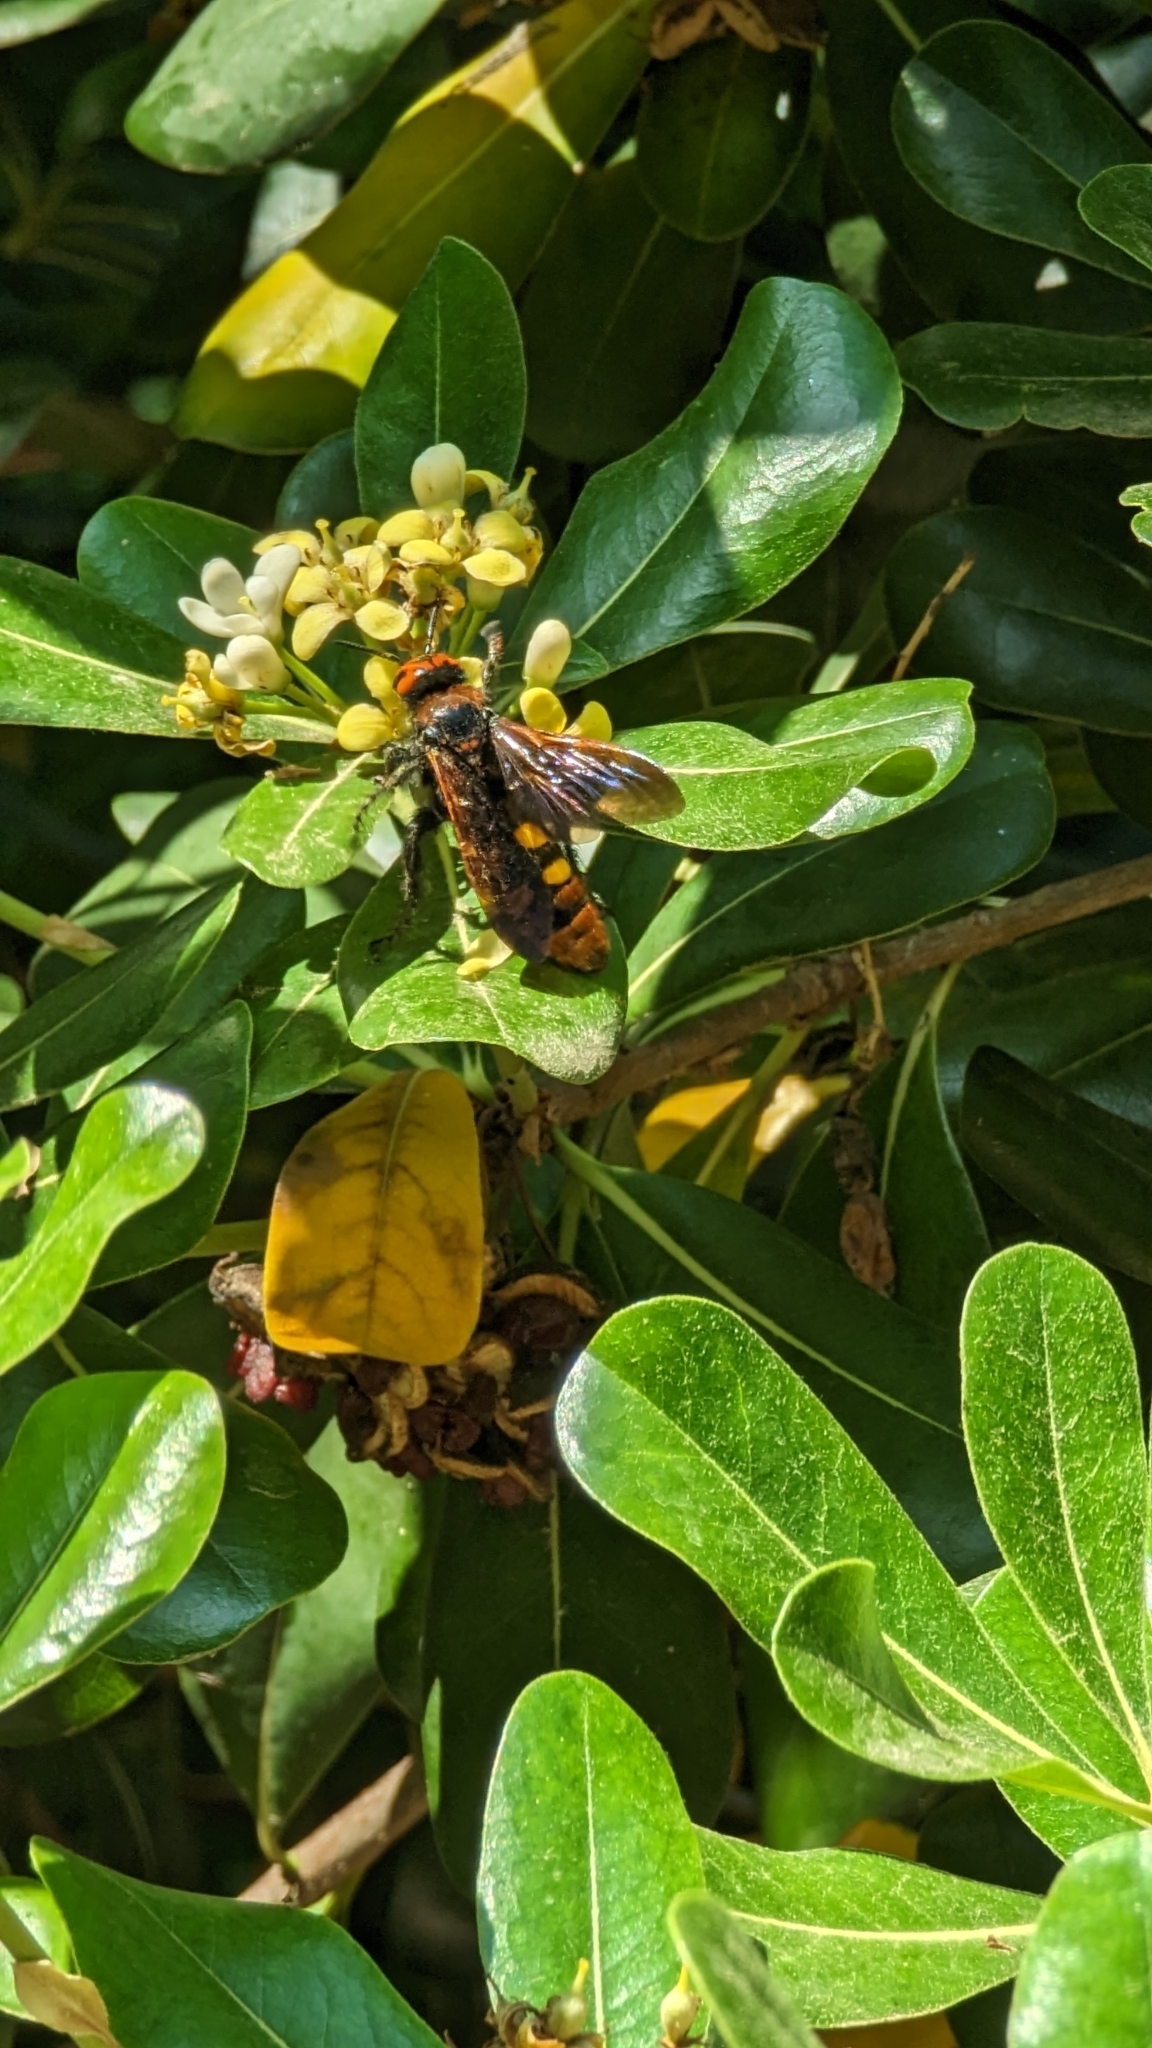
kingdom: Animalia
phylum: Arthropoda
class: Insecta
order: Hymenoptera
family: Scoliidae
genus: Megascolia
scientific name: Megascolia maculata
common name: Mammoth wasp
